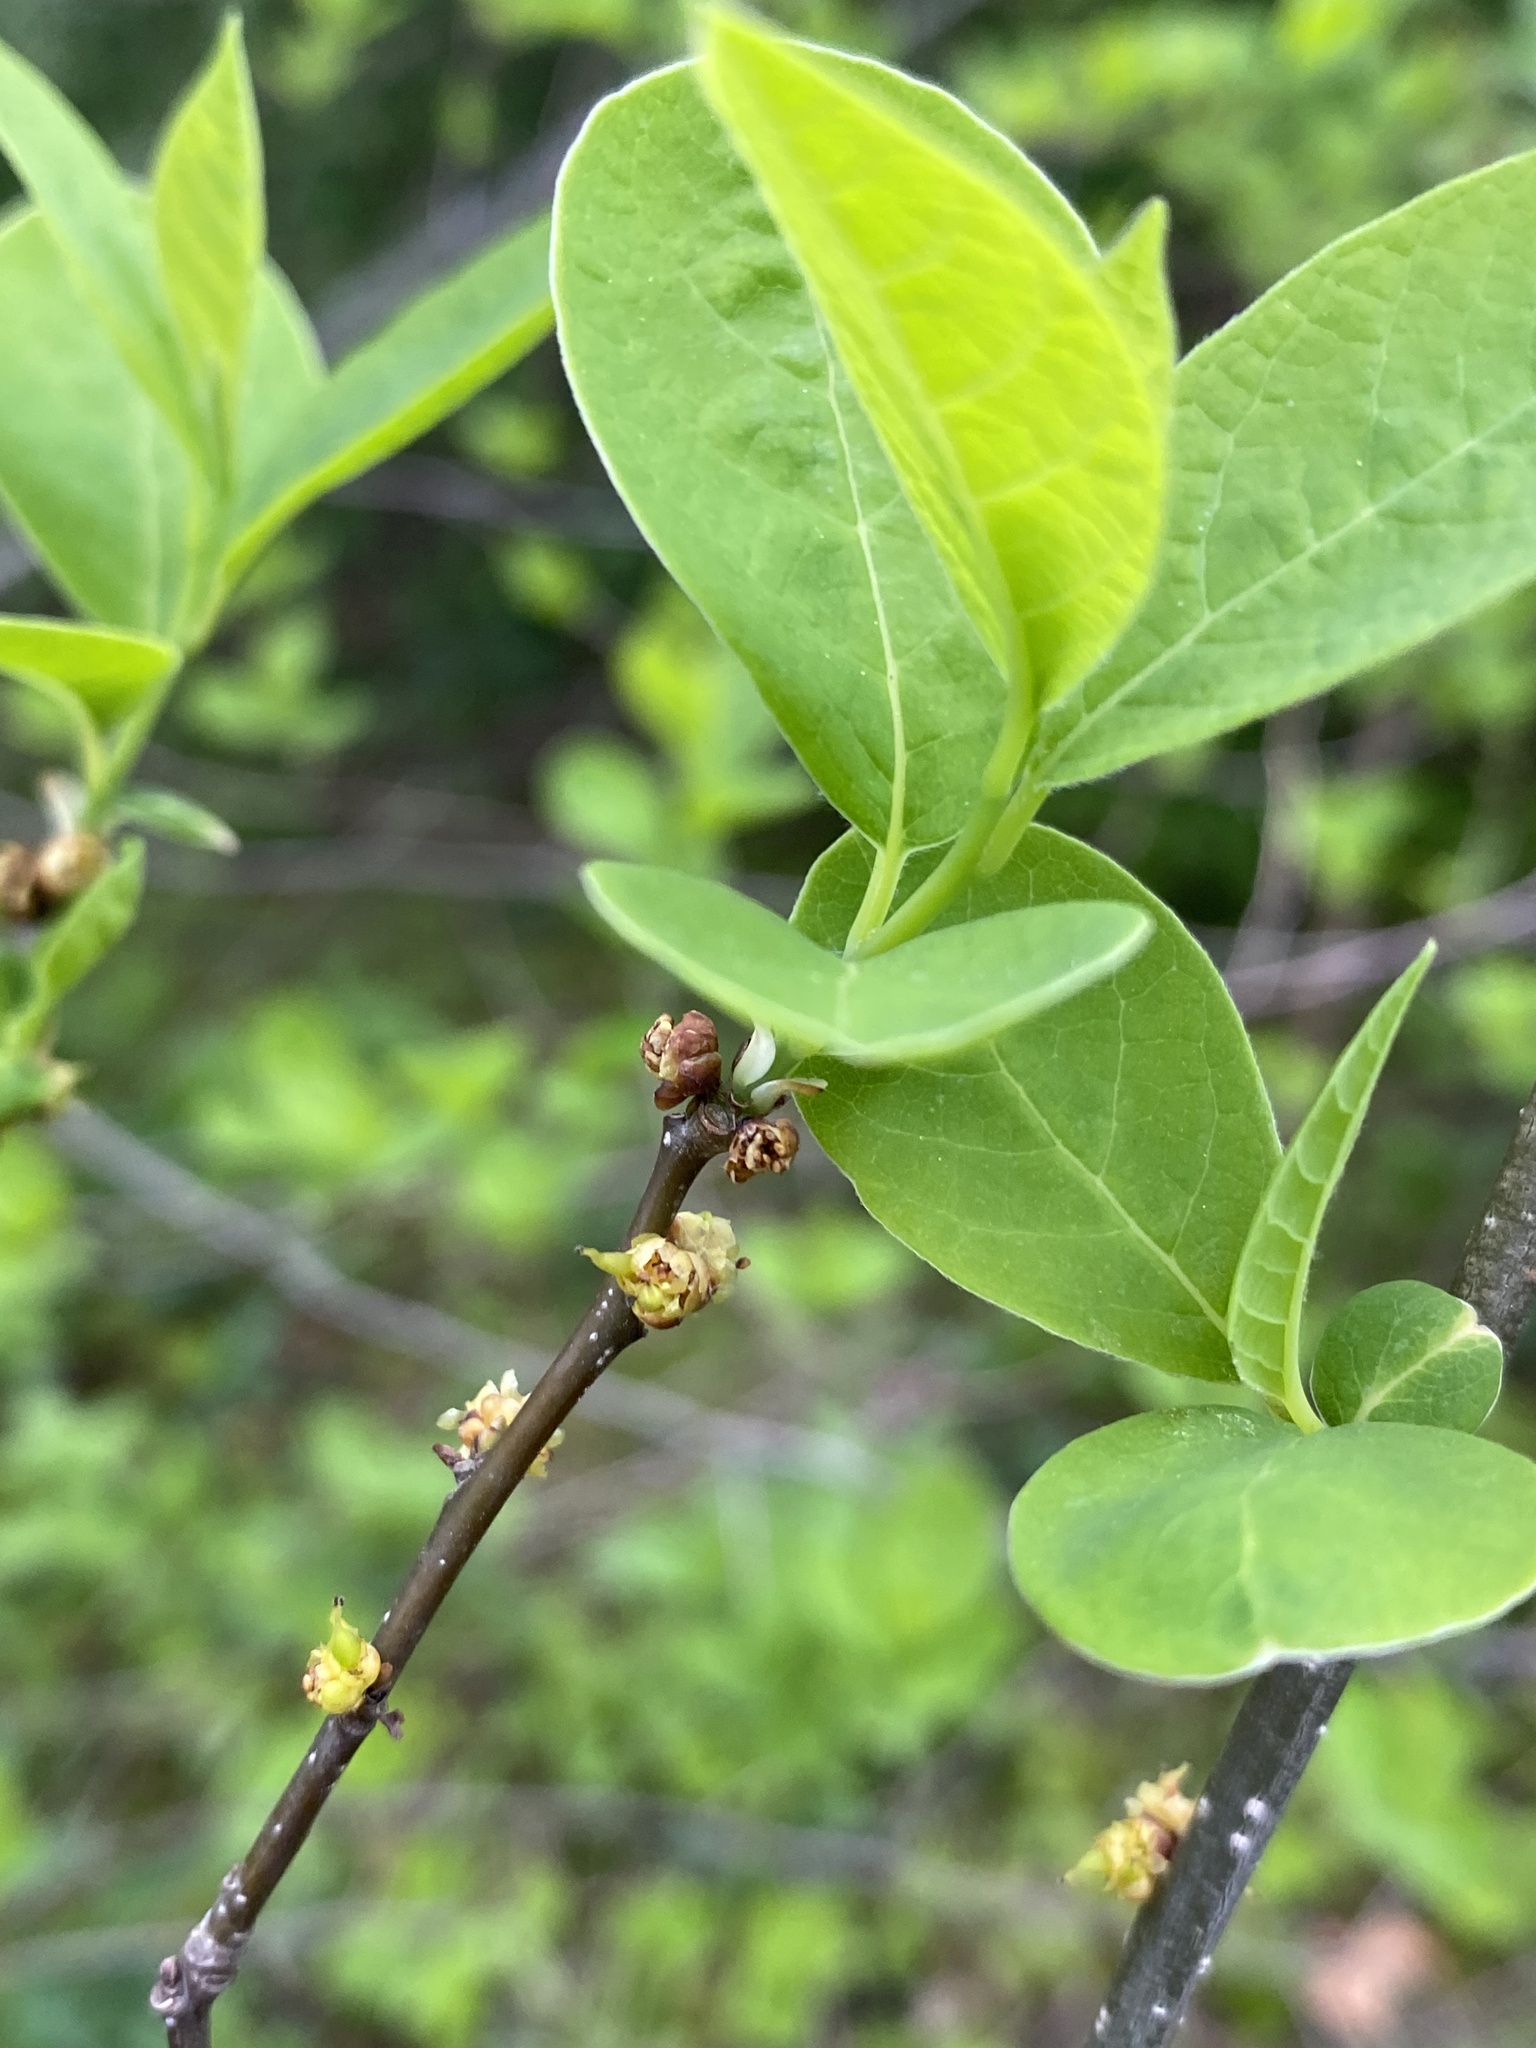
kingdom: Plantae
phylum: Tracheophyta
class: Magnoliopsida
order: Laurales
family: Lauraceae
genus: Lindera
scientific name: Lindera benzoin
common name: Spicebush
